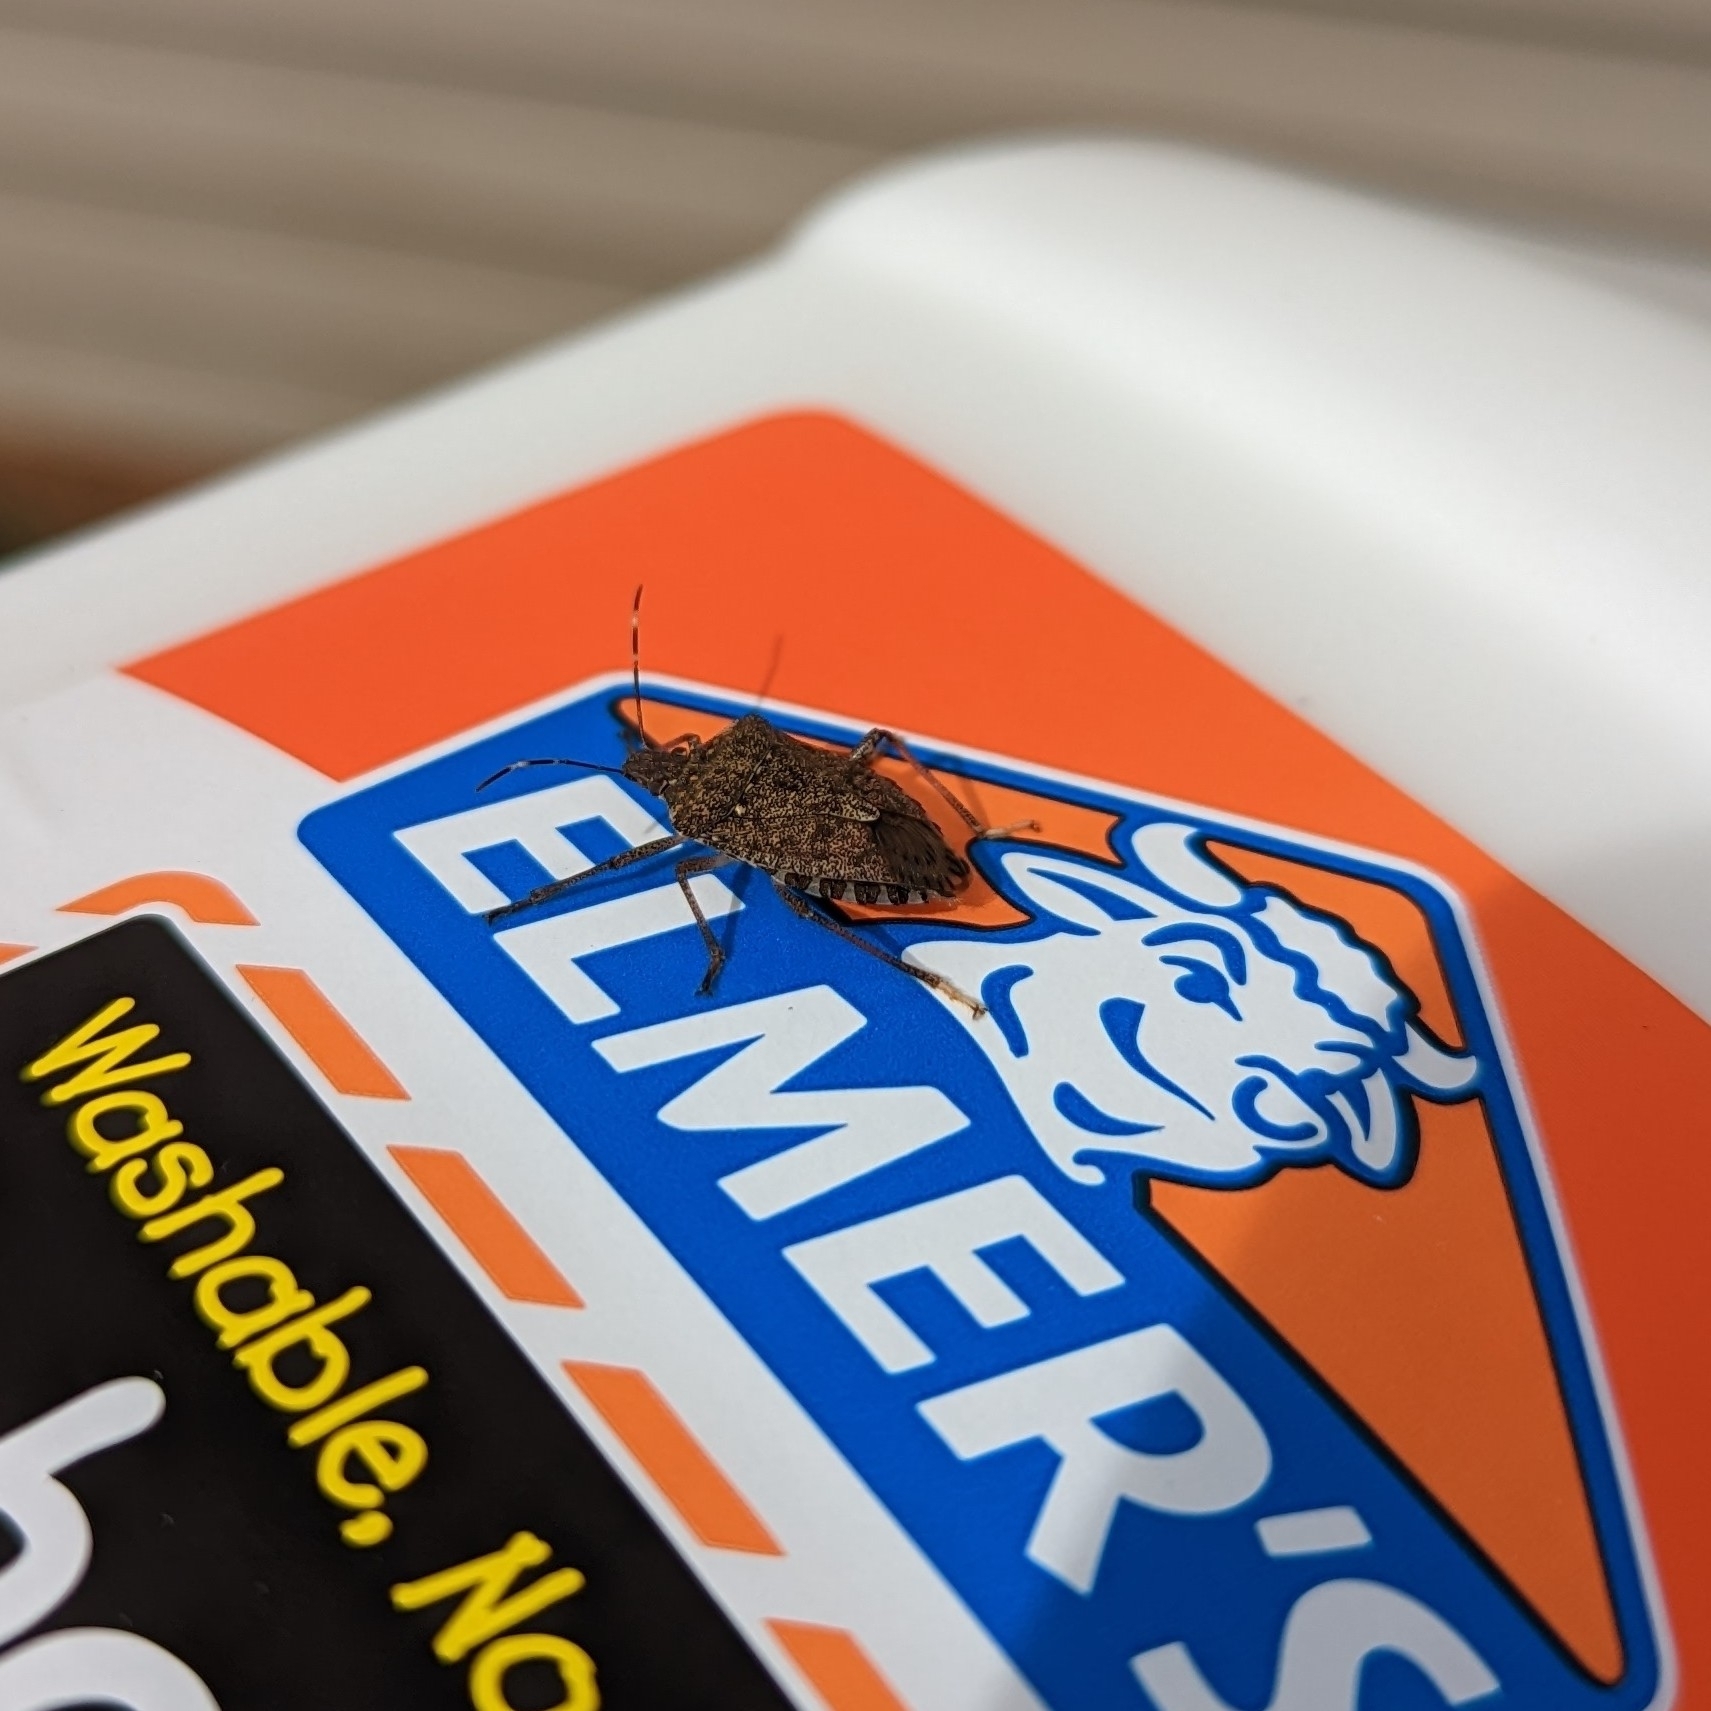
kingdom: Animalia
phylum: Arthropoda
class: Insecta
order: Hemiptera
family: Pentatomidae
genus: Halyomorpha
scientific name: Halyomorpha halys
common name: Brown marmorated stink bug
